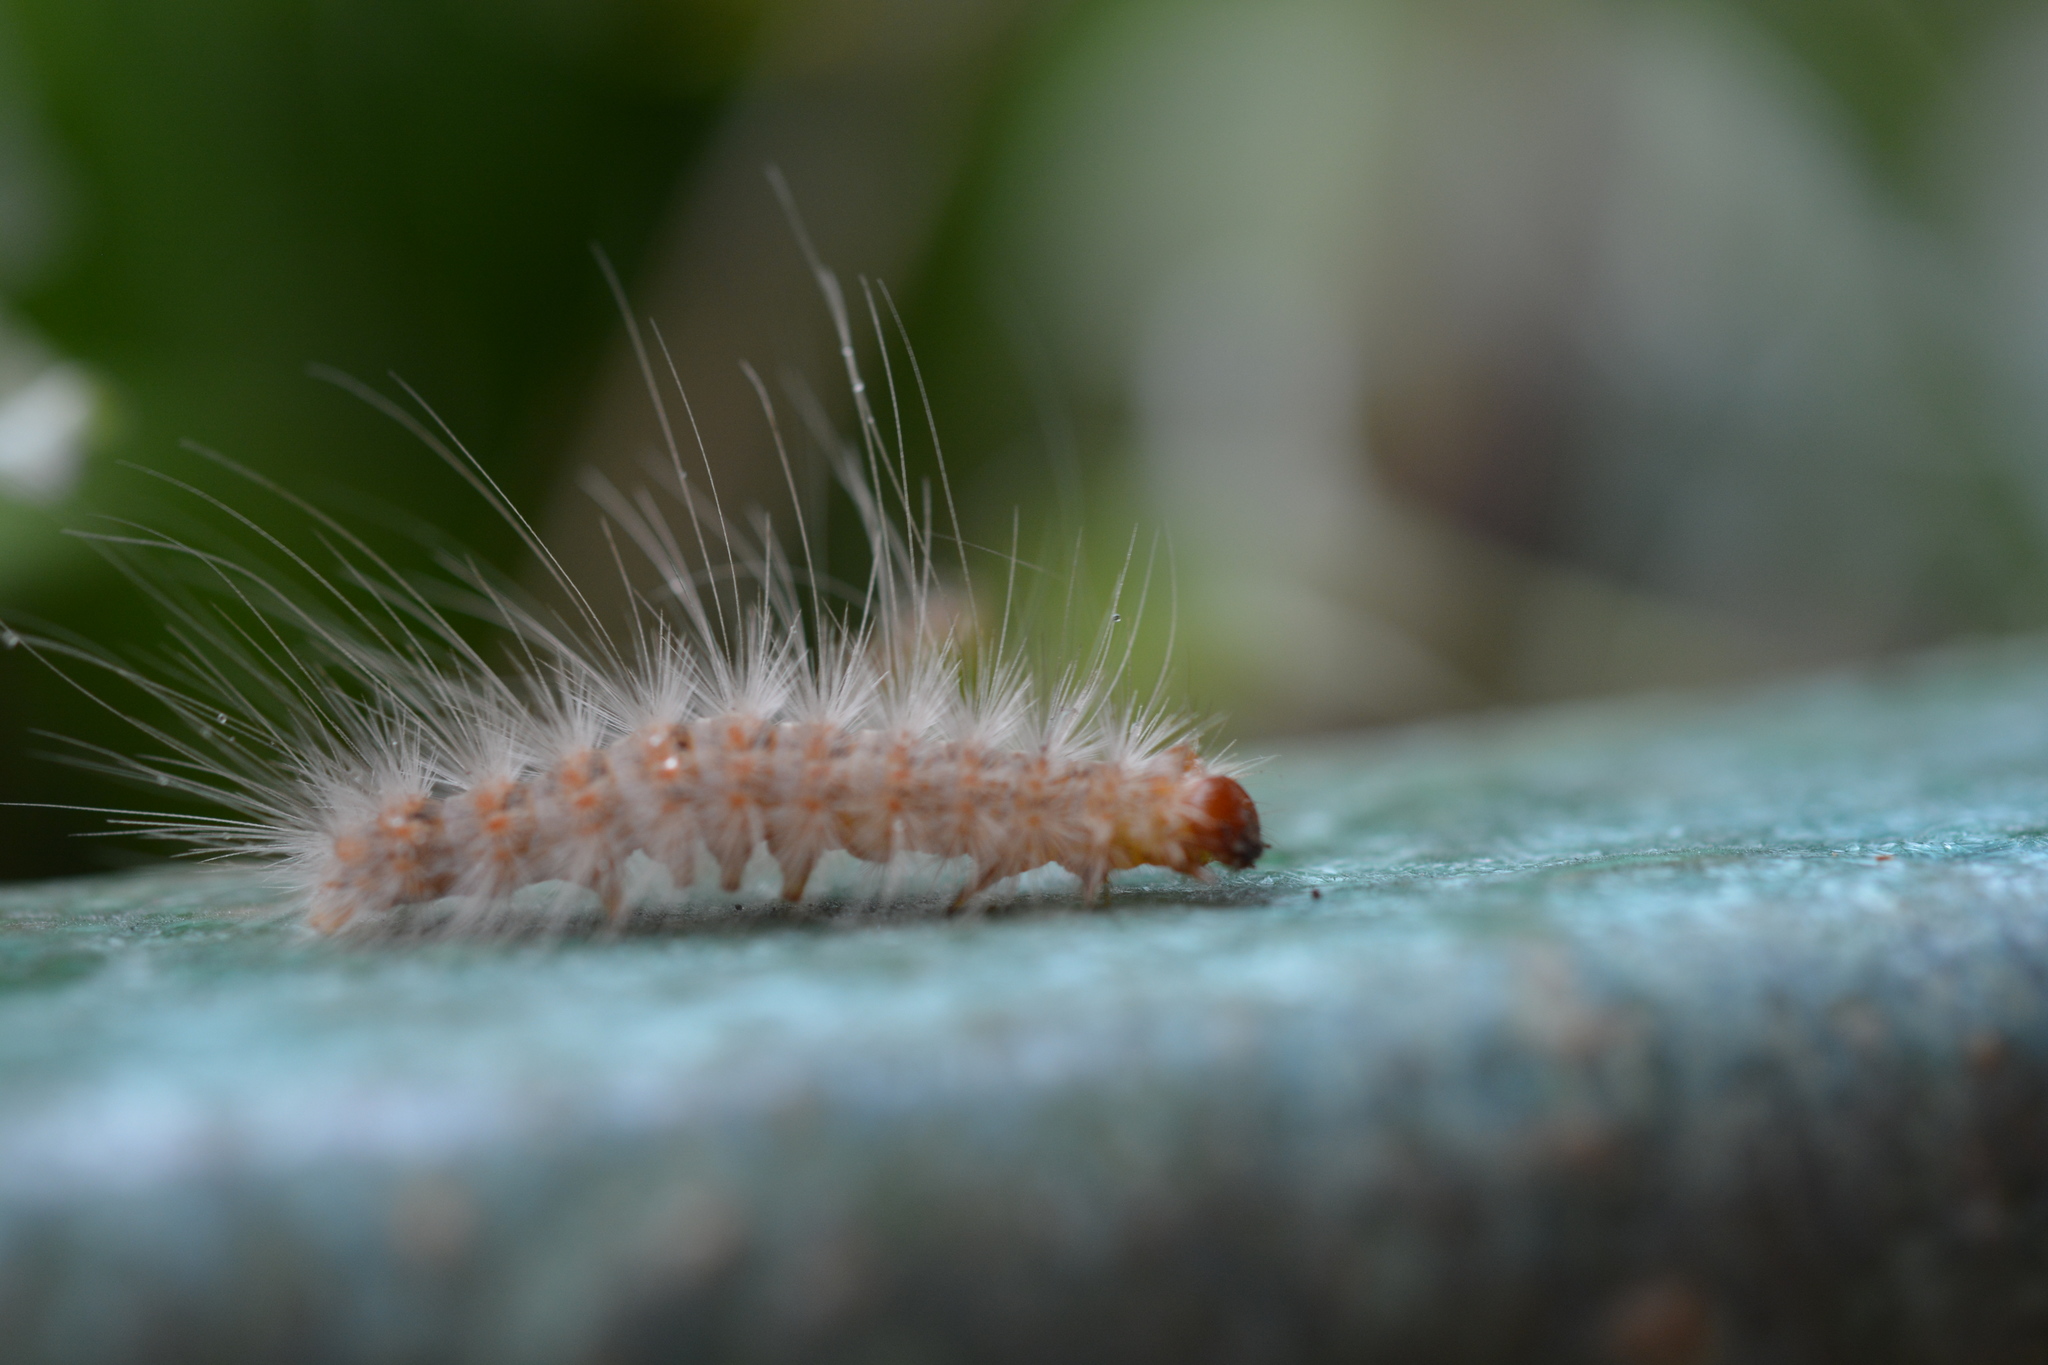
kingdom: Animalia
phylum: Arthropoda
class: Insecta
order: Lepidoptera
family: Erebidae
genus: Hyphantria
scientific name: Hyphantria cunea
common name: American white moth
